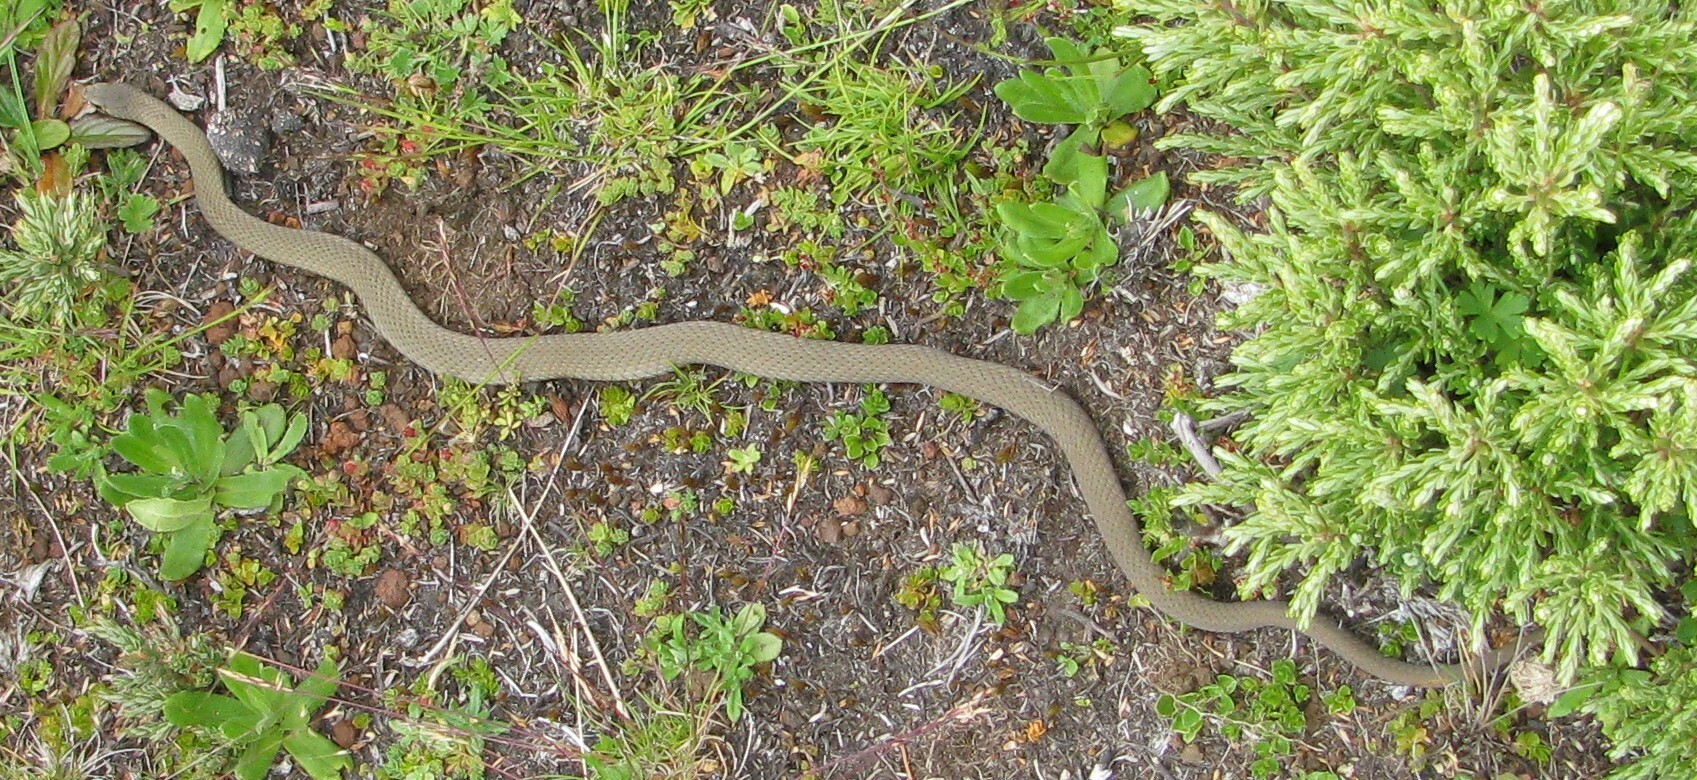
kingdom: Animalia
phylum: Chordata
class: Squamata
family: Elapidae
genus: Drysdalia
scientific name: Drysdalia coronoides
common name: White-lipped snake
